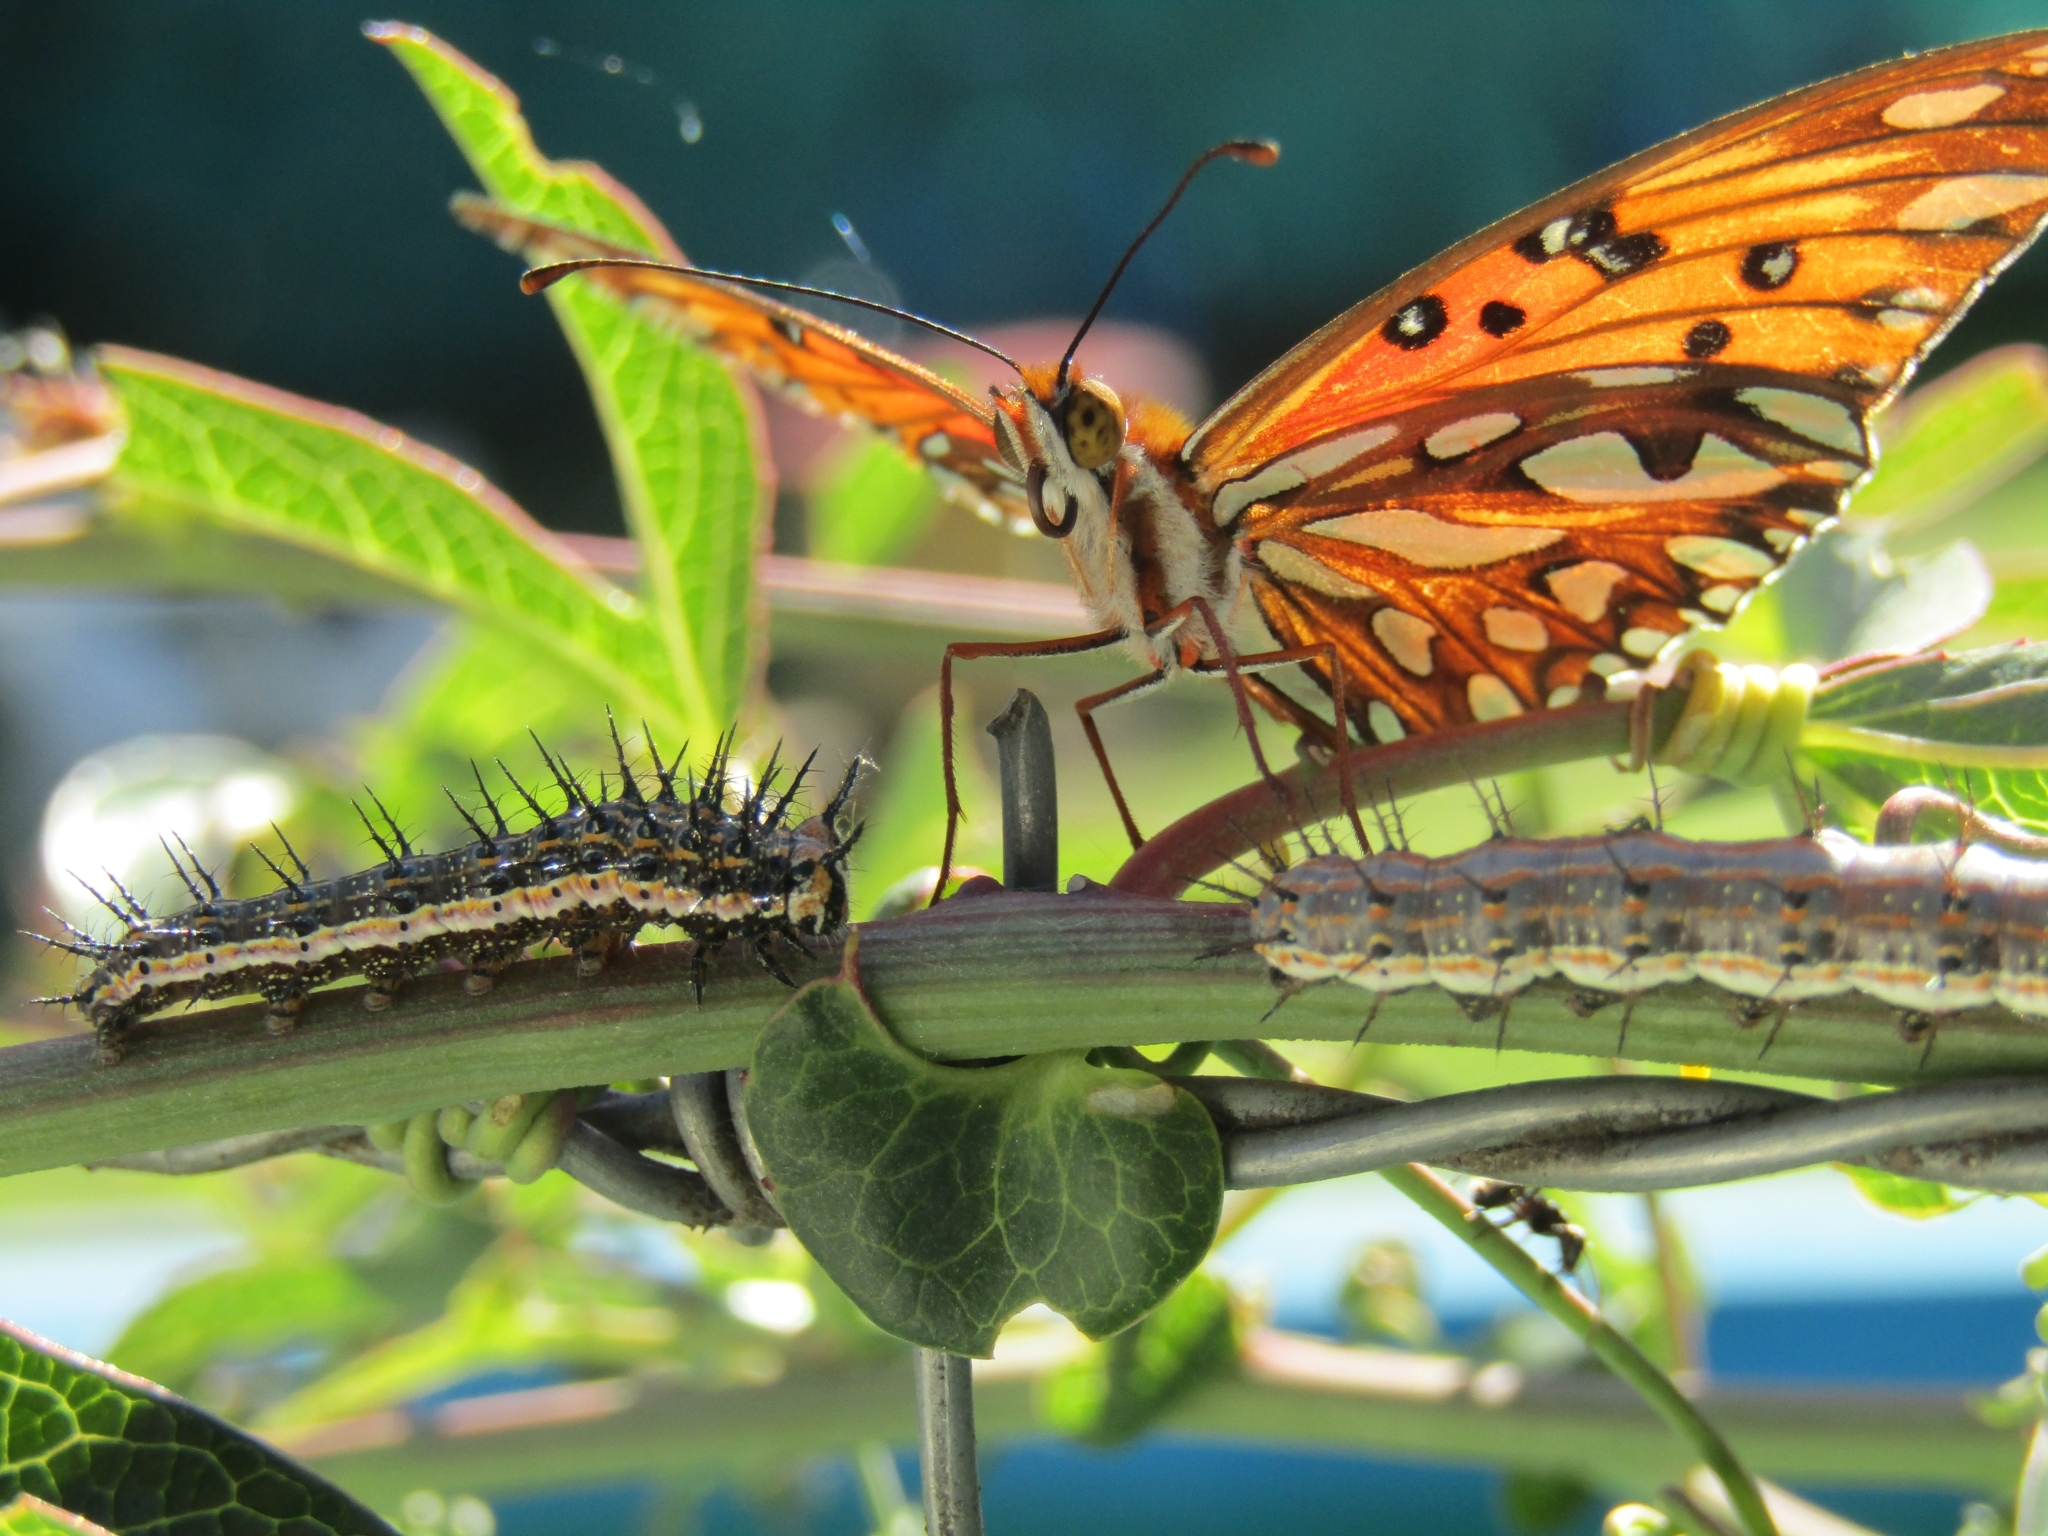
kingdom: Animalia
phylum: Arthropoda
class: Insecta
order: Lepidoptera
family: Nymphalidae
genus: Dione
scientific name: Dione vanillae
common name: Gulf fritillary
